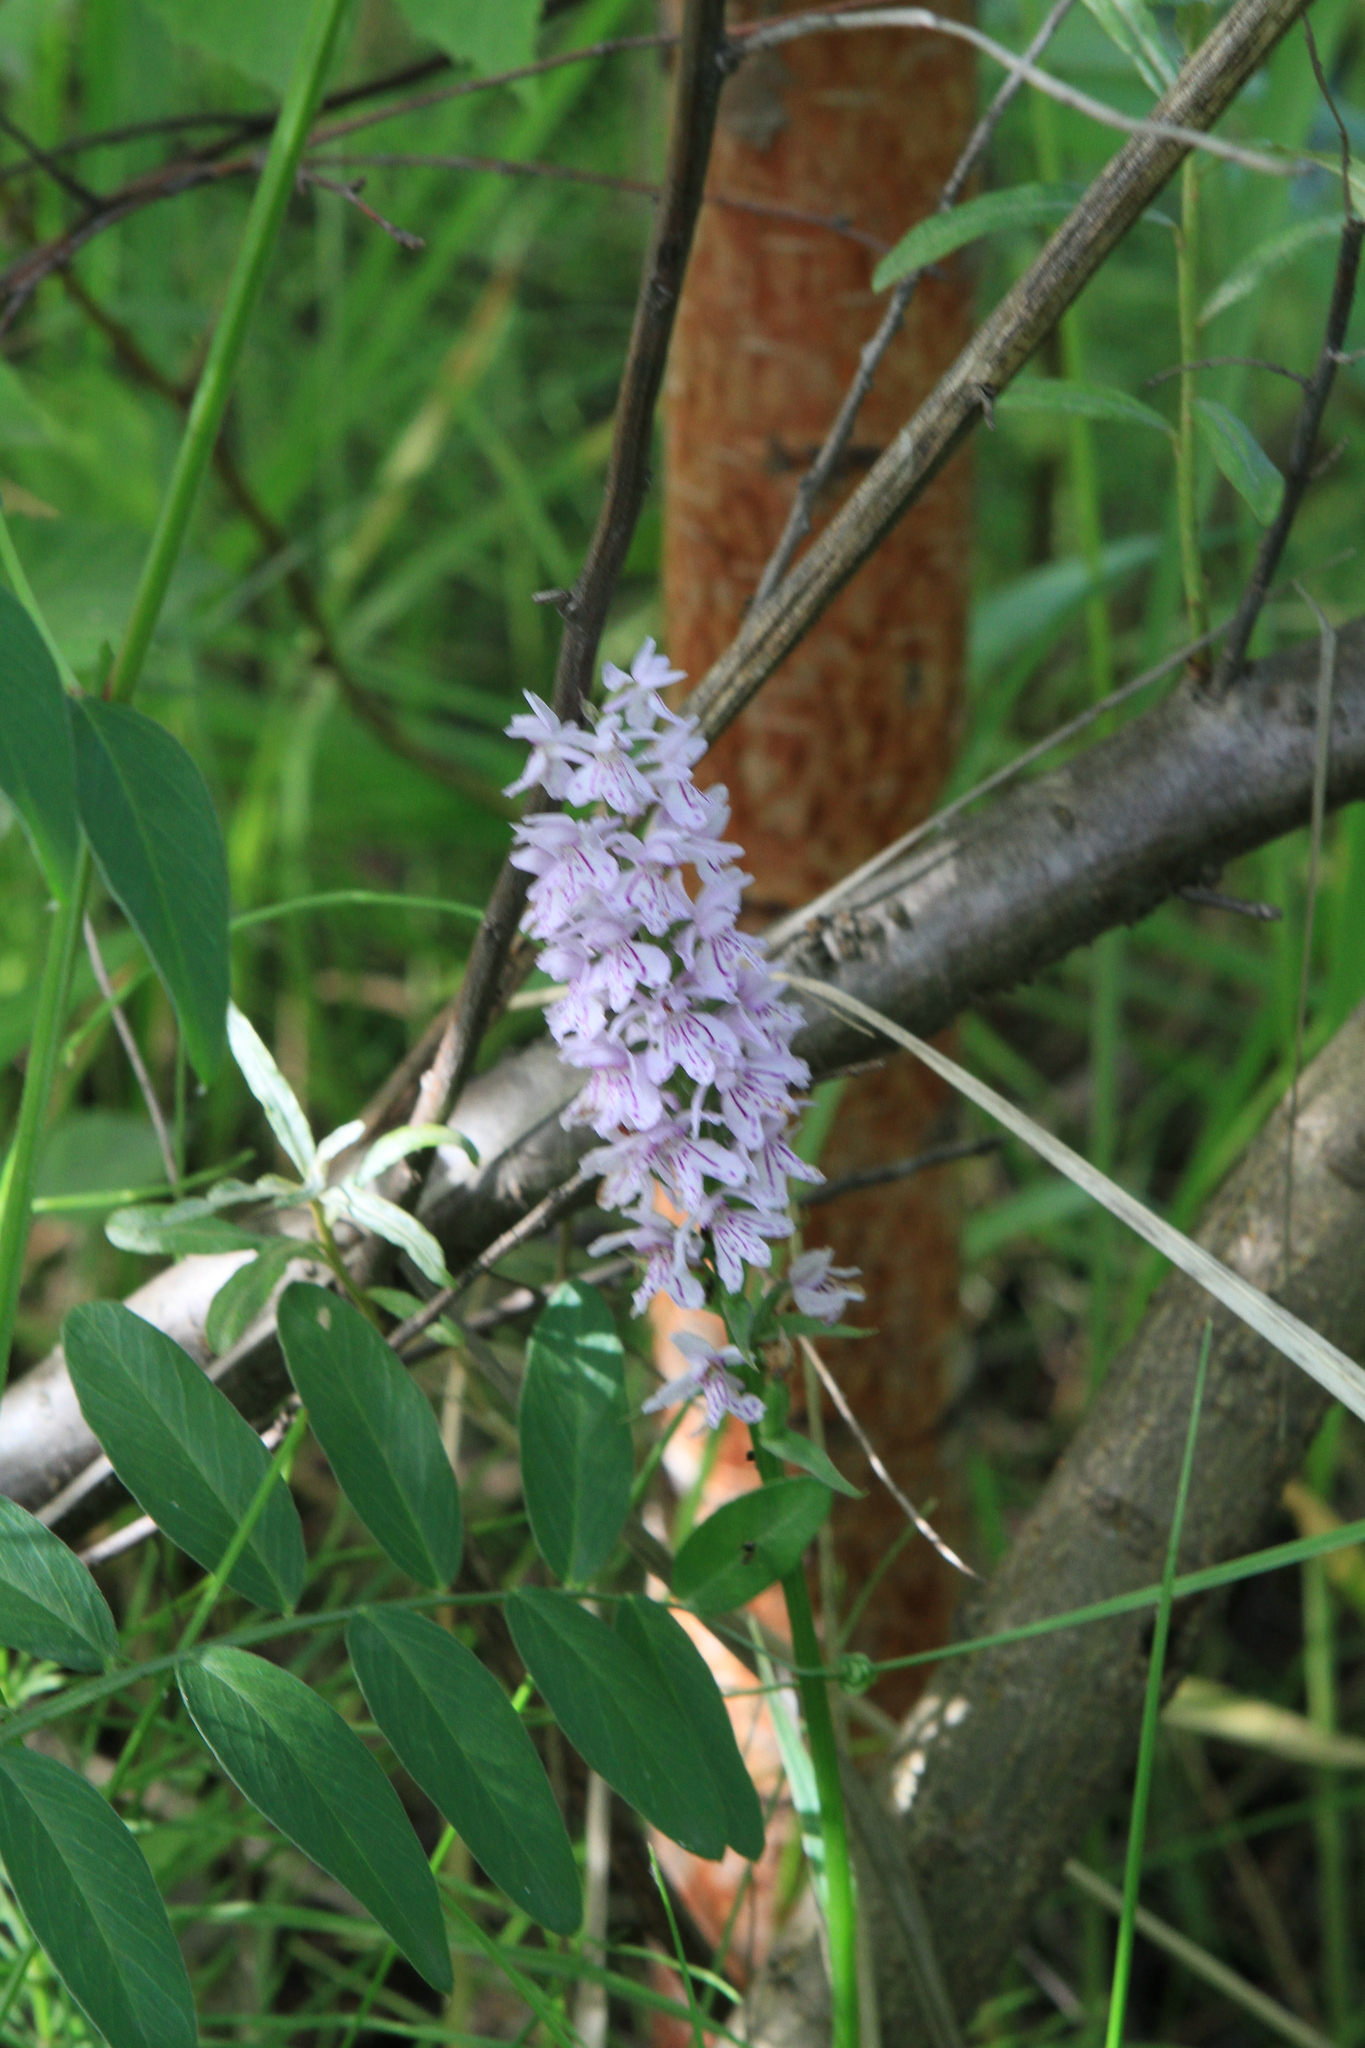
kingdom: Plantae
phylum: Tracheophyta
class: Liliopsida
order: Asparagales
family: Orchidaceae
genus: Dactylorhiza
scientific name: Dactylorhiza maculata
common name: Heath spotted-orchid
